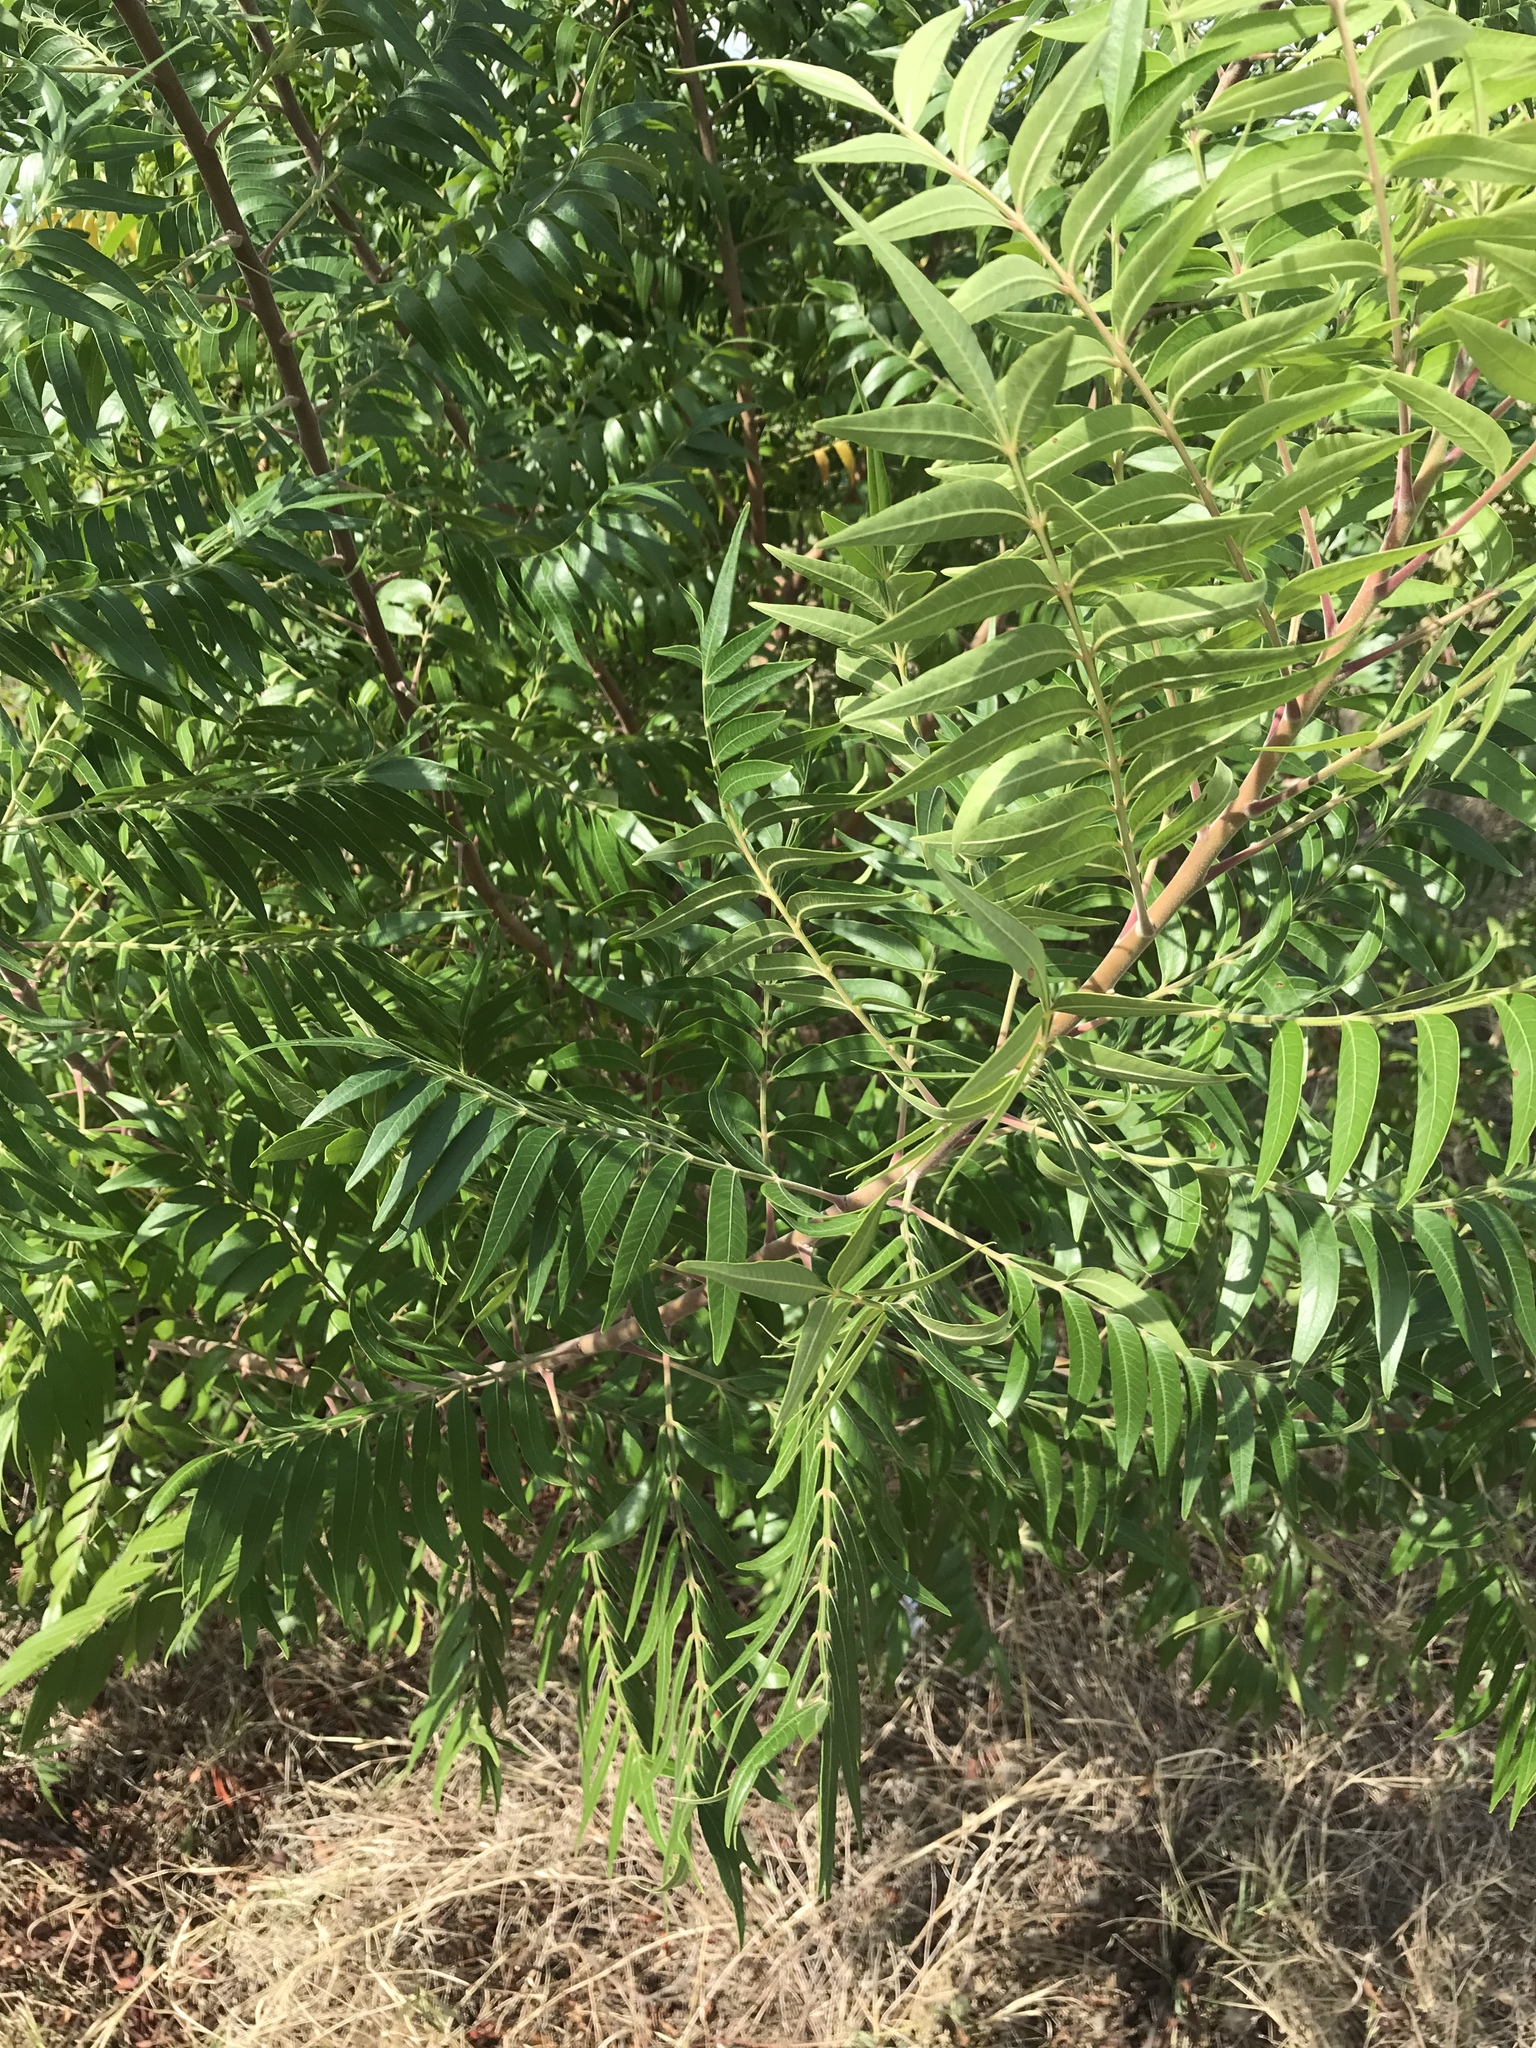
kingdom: Plantae
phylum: Tracheophyta
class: Magnoliopsida
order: Sapindales
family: Anacardiaceae
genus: Rhus
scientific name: Rhus lanceolata
